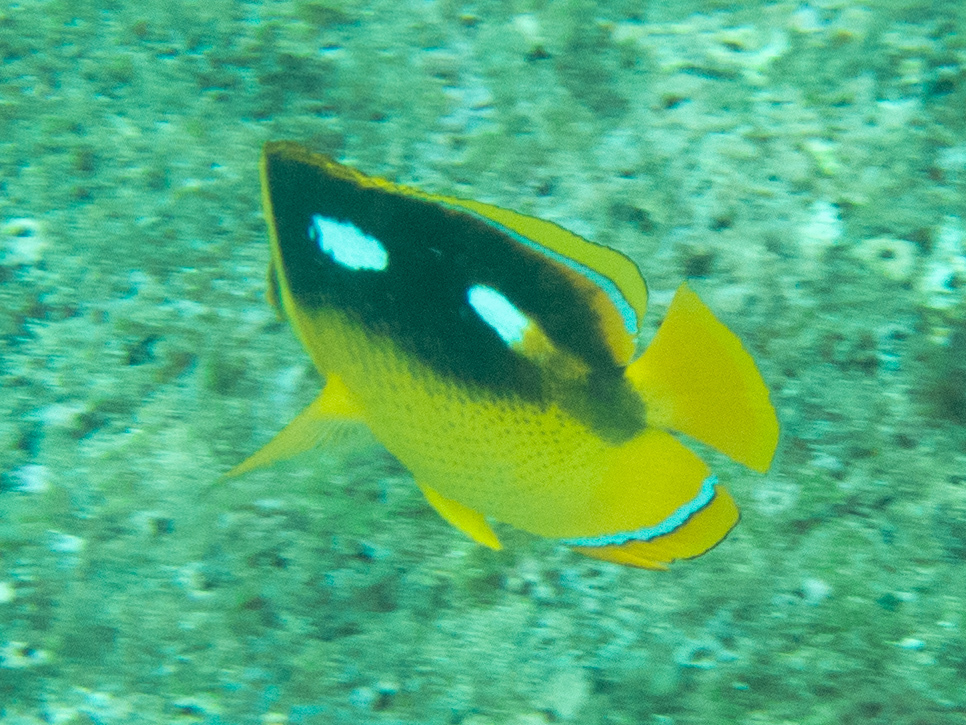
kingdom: Animalia
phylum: Chordata
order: Perciformes
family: Chaetodontidae
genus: Chaetodon
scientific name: Chaetodon quadrimaculatus
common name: Fourspot butterflyfish
